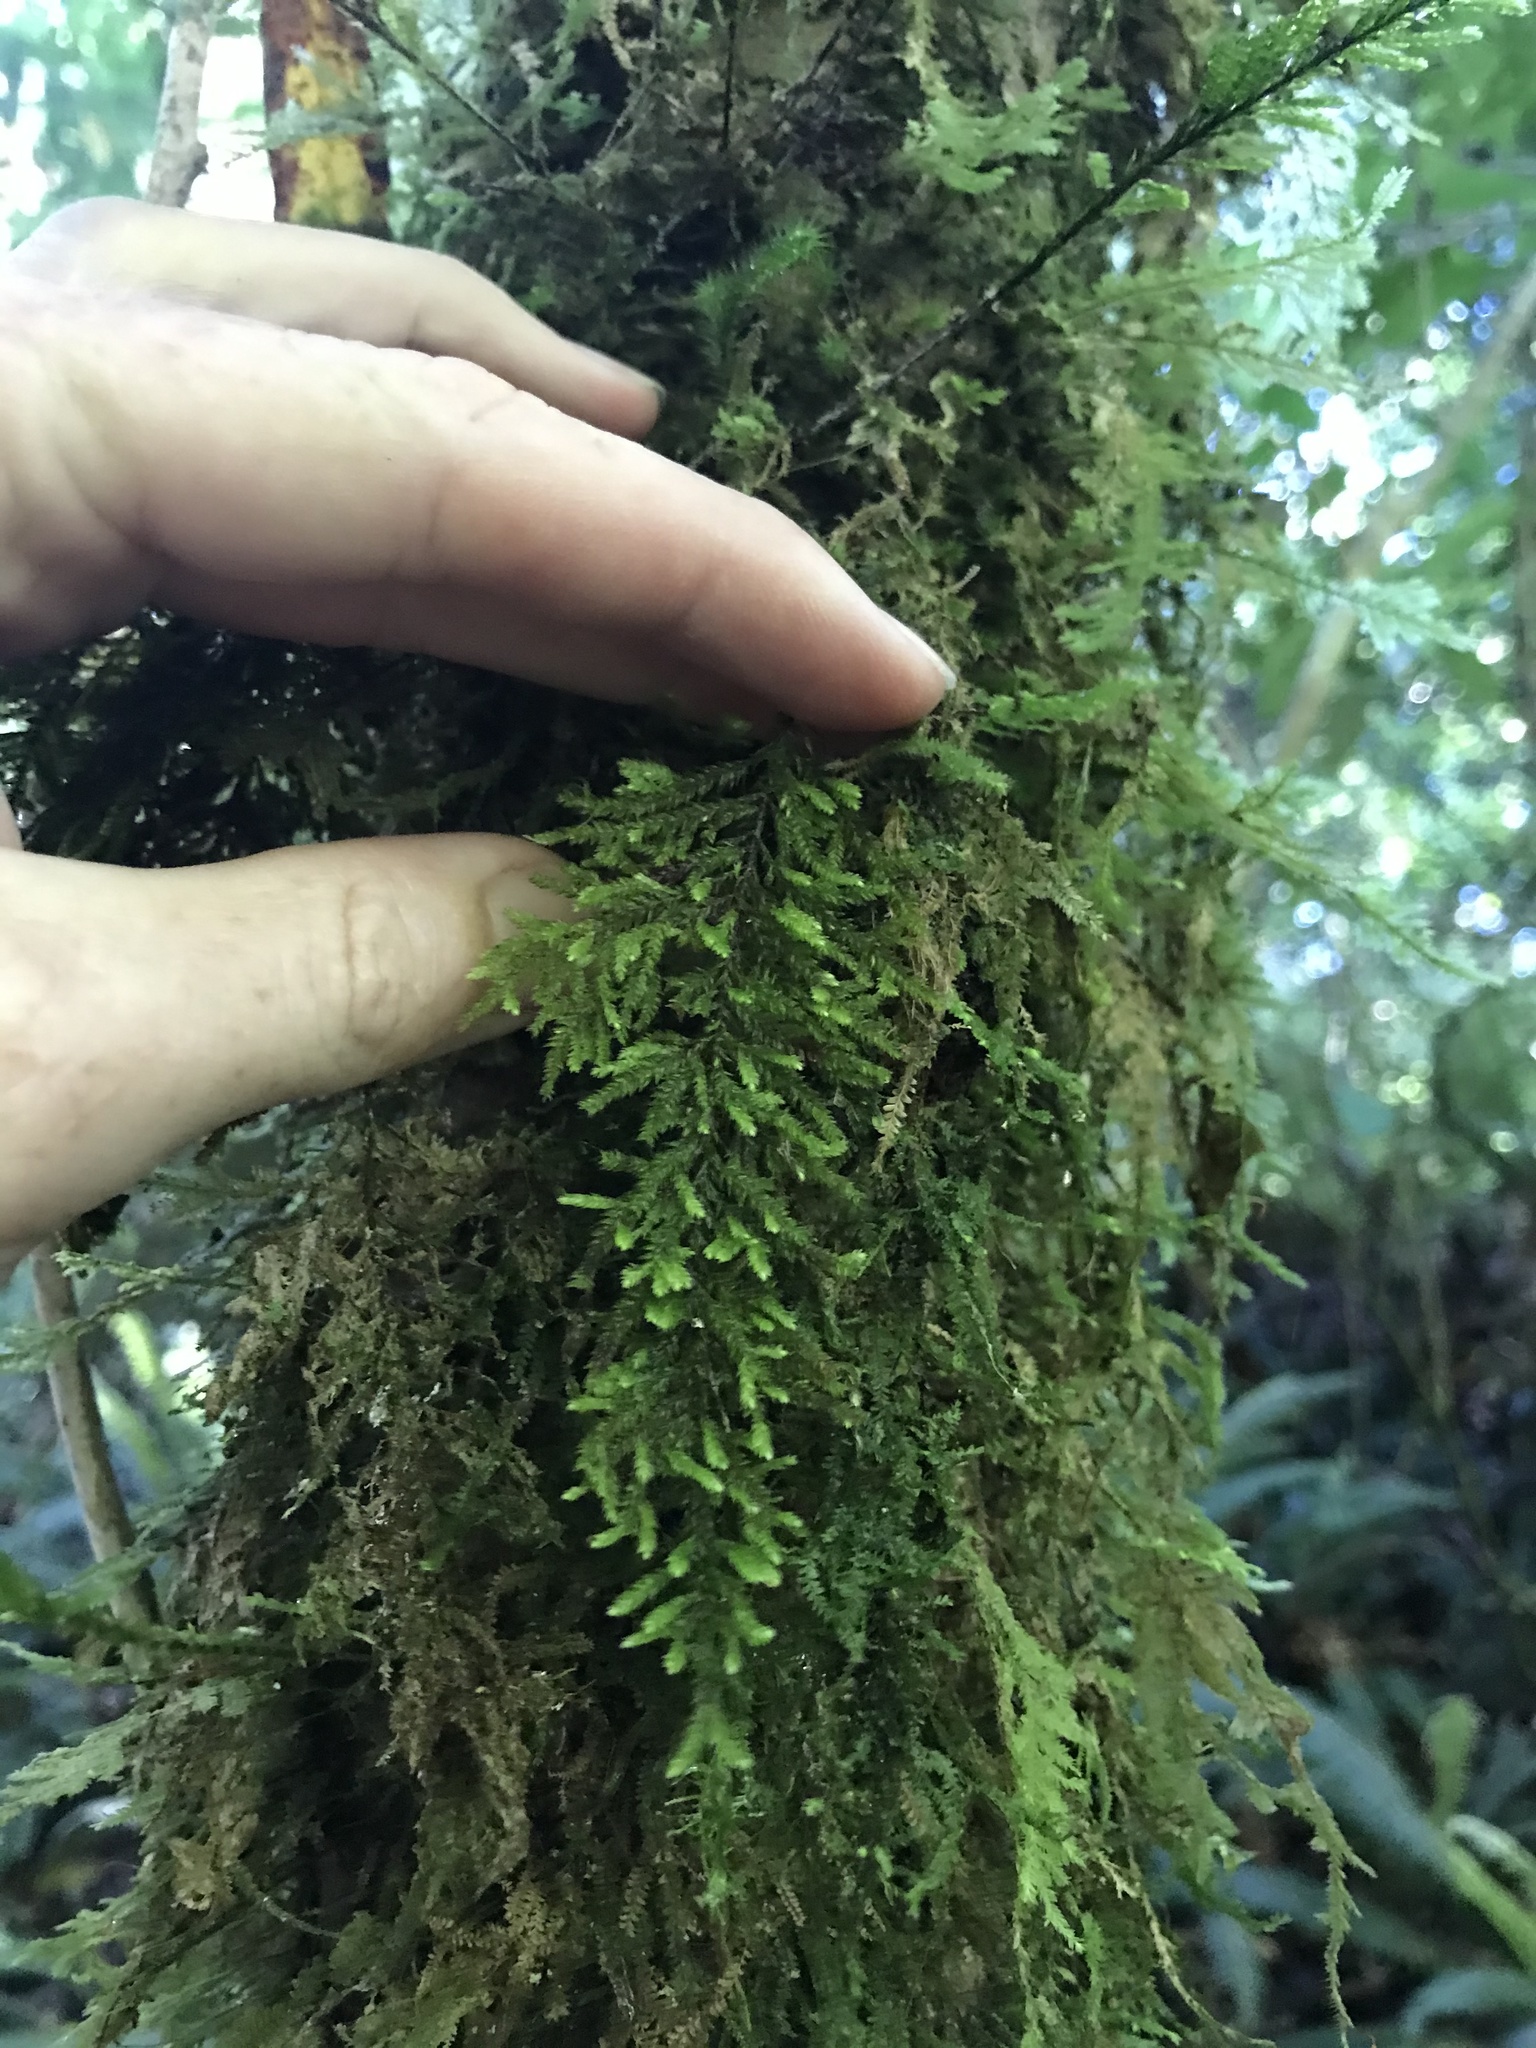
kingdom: Plantae
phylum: Bryophyta
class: Bryopsida
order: Hypnales
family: Trachylomataceae
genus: Trachyloma
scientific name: Trachyloma diversinerve
